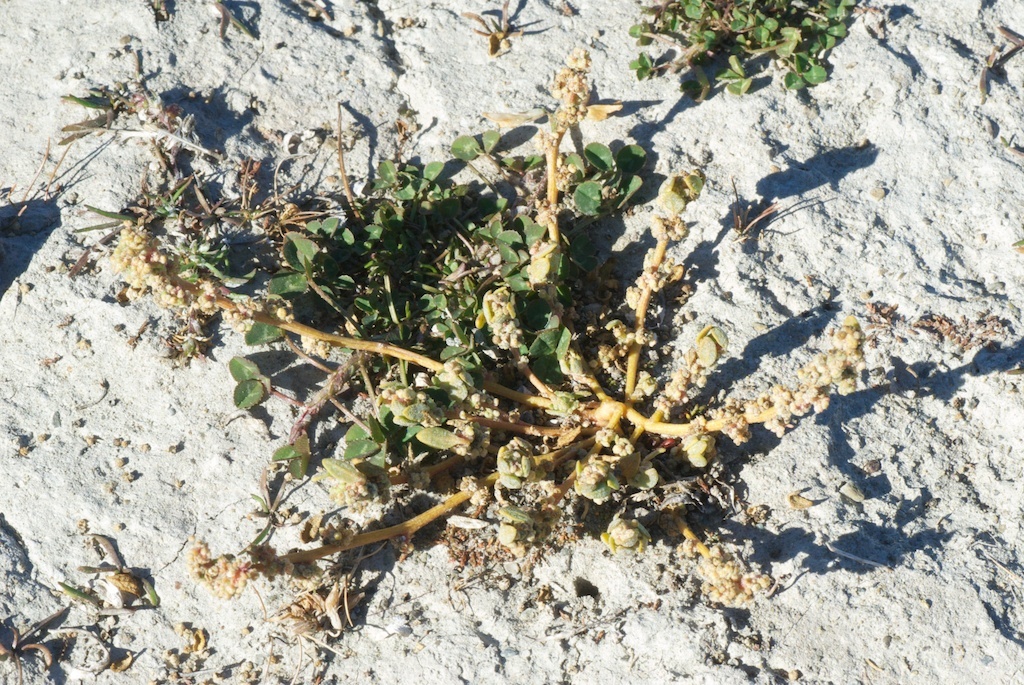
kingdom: Plantae
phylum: Tracheophyta
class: Magnoliopsida
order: Caryophyllales
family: Amaranthaceae
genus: Chenopodium
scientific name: Chenopodium detestans
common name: Fish-guts
